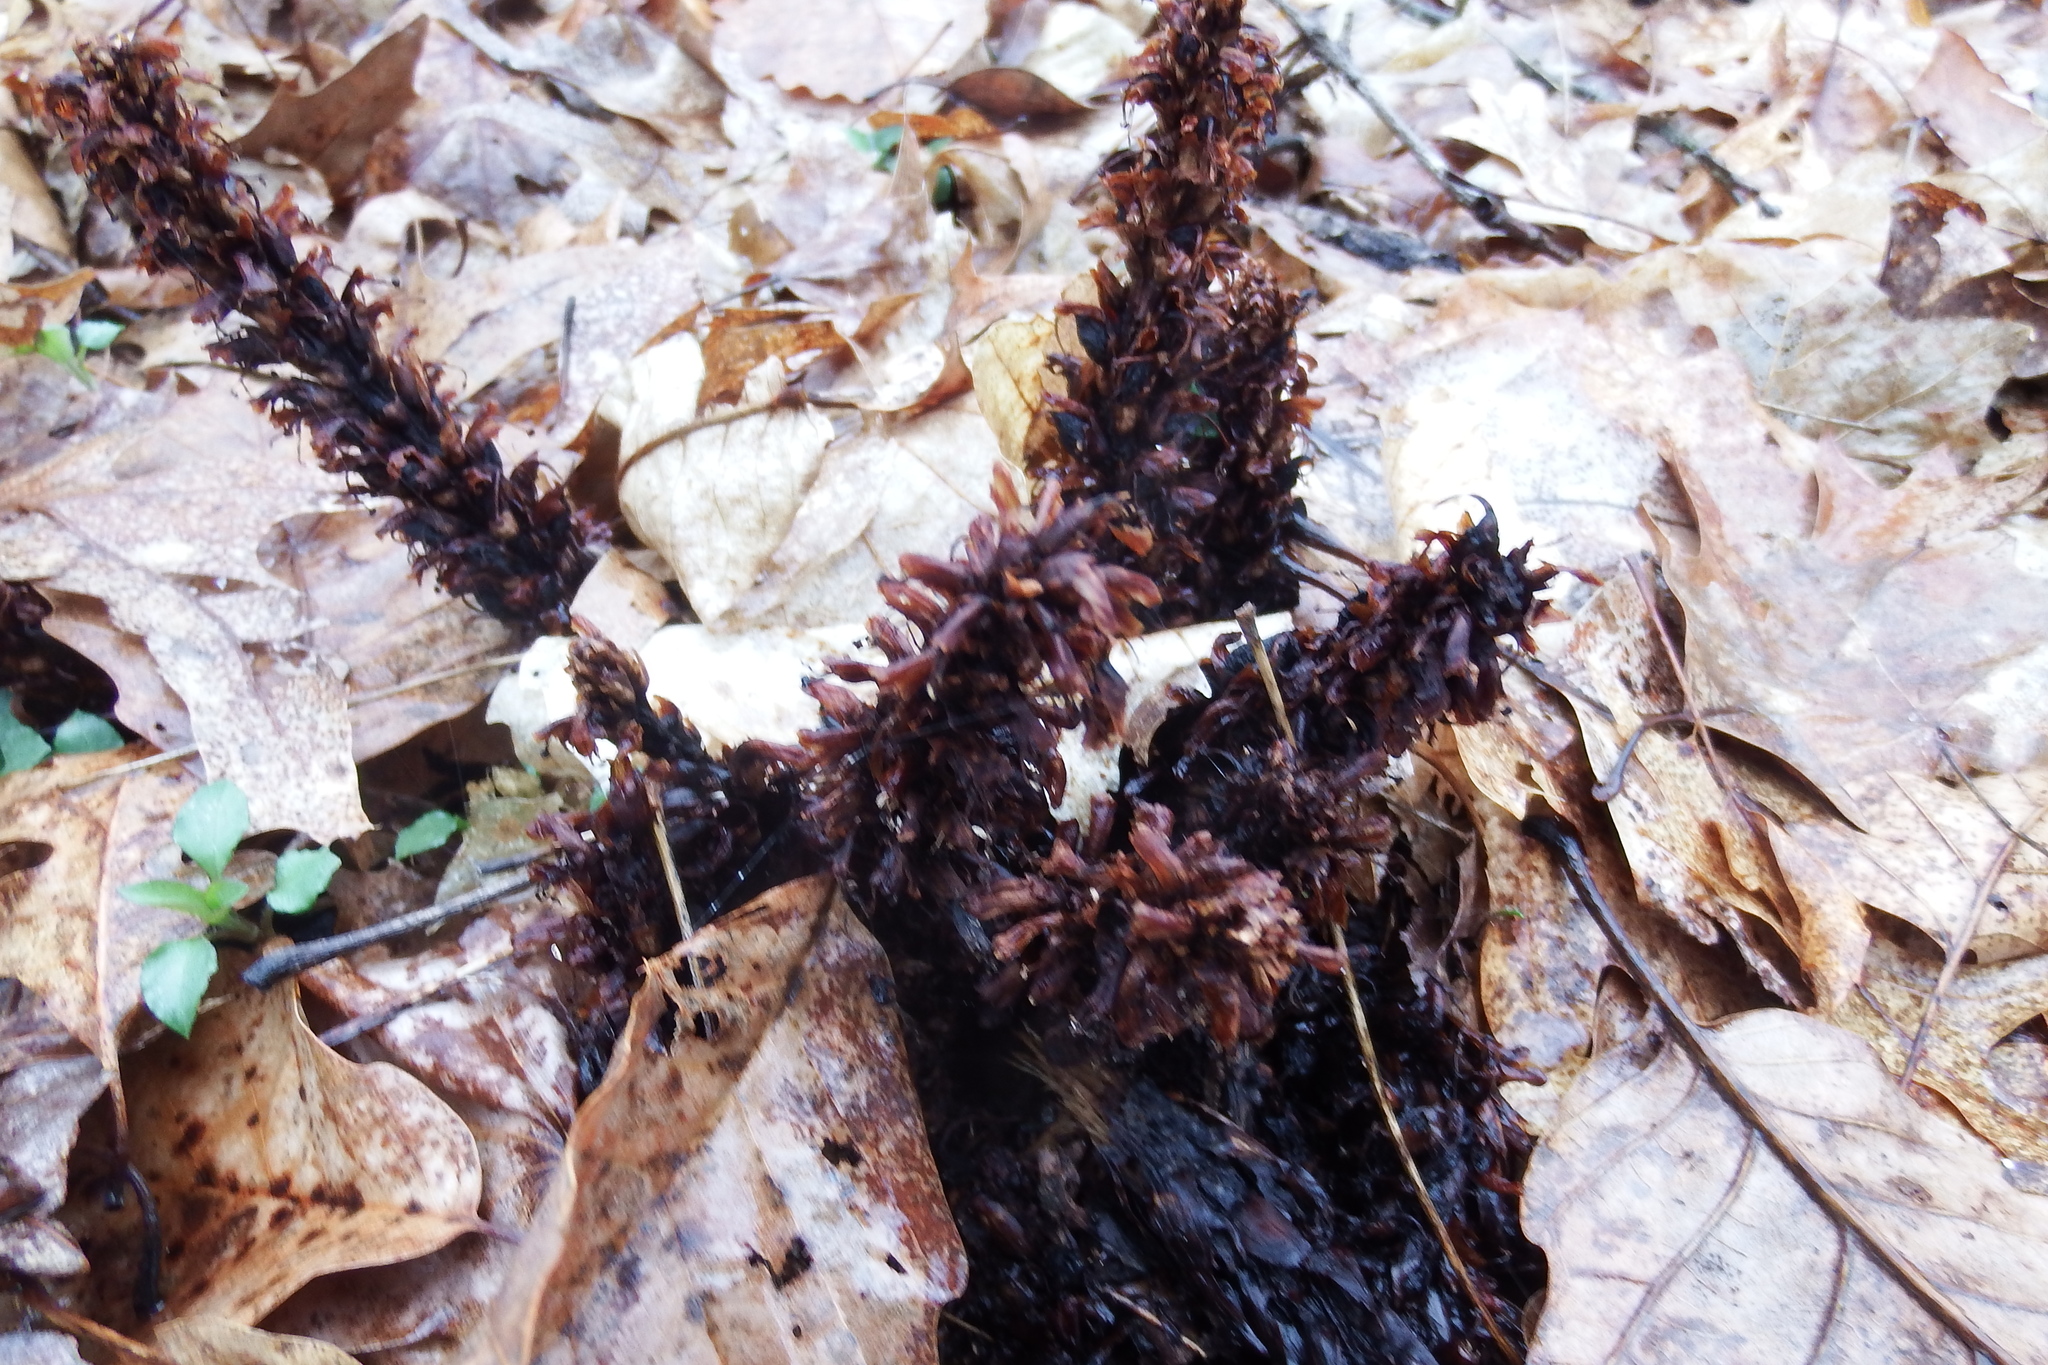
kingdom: Plantae
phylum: Tracheophyta
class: Magnoliopsida
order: Lamiales
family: Orobanchaceae
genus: Conopholis
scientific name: Conopholis americana
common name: American cancer-root
